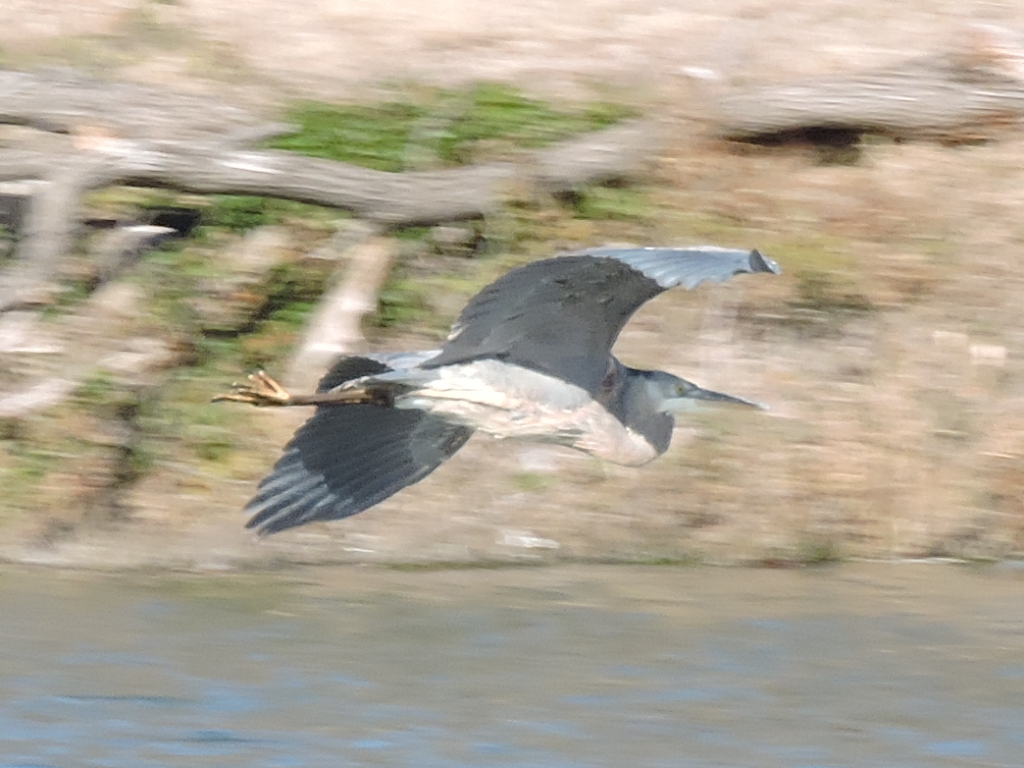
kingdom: Animalia
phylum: Chordata
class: Aves
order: Pelecaniformes
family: Ardeidae
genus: Ardea
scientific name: Ardea herodias
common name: Great blue heron
